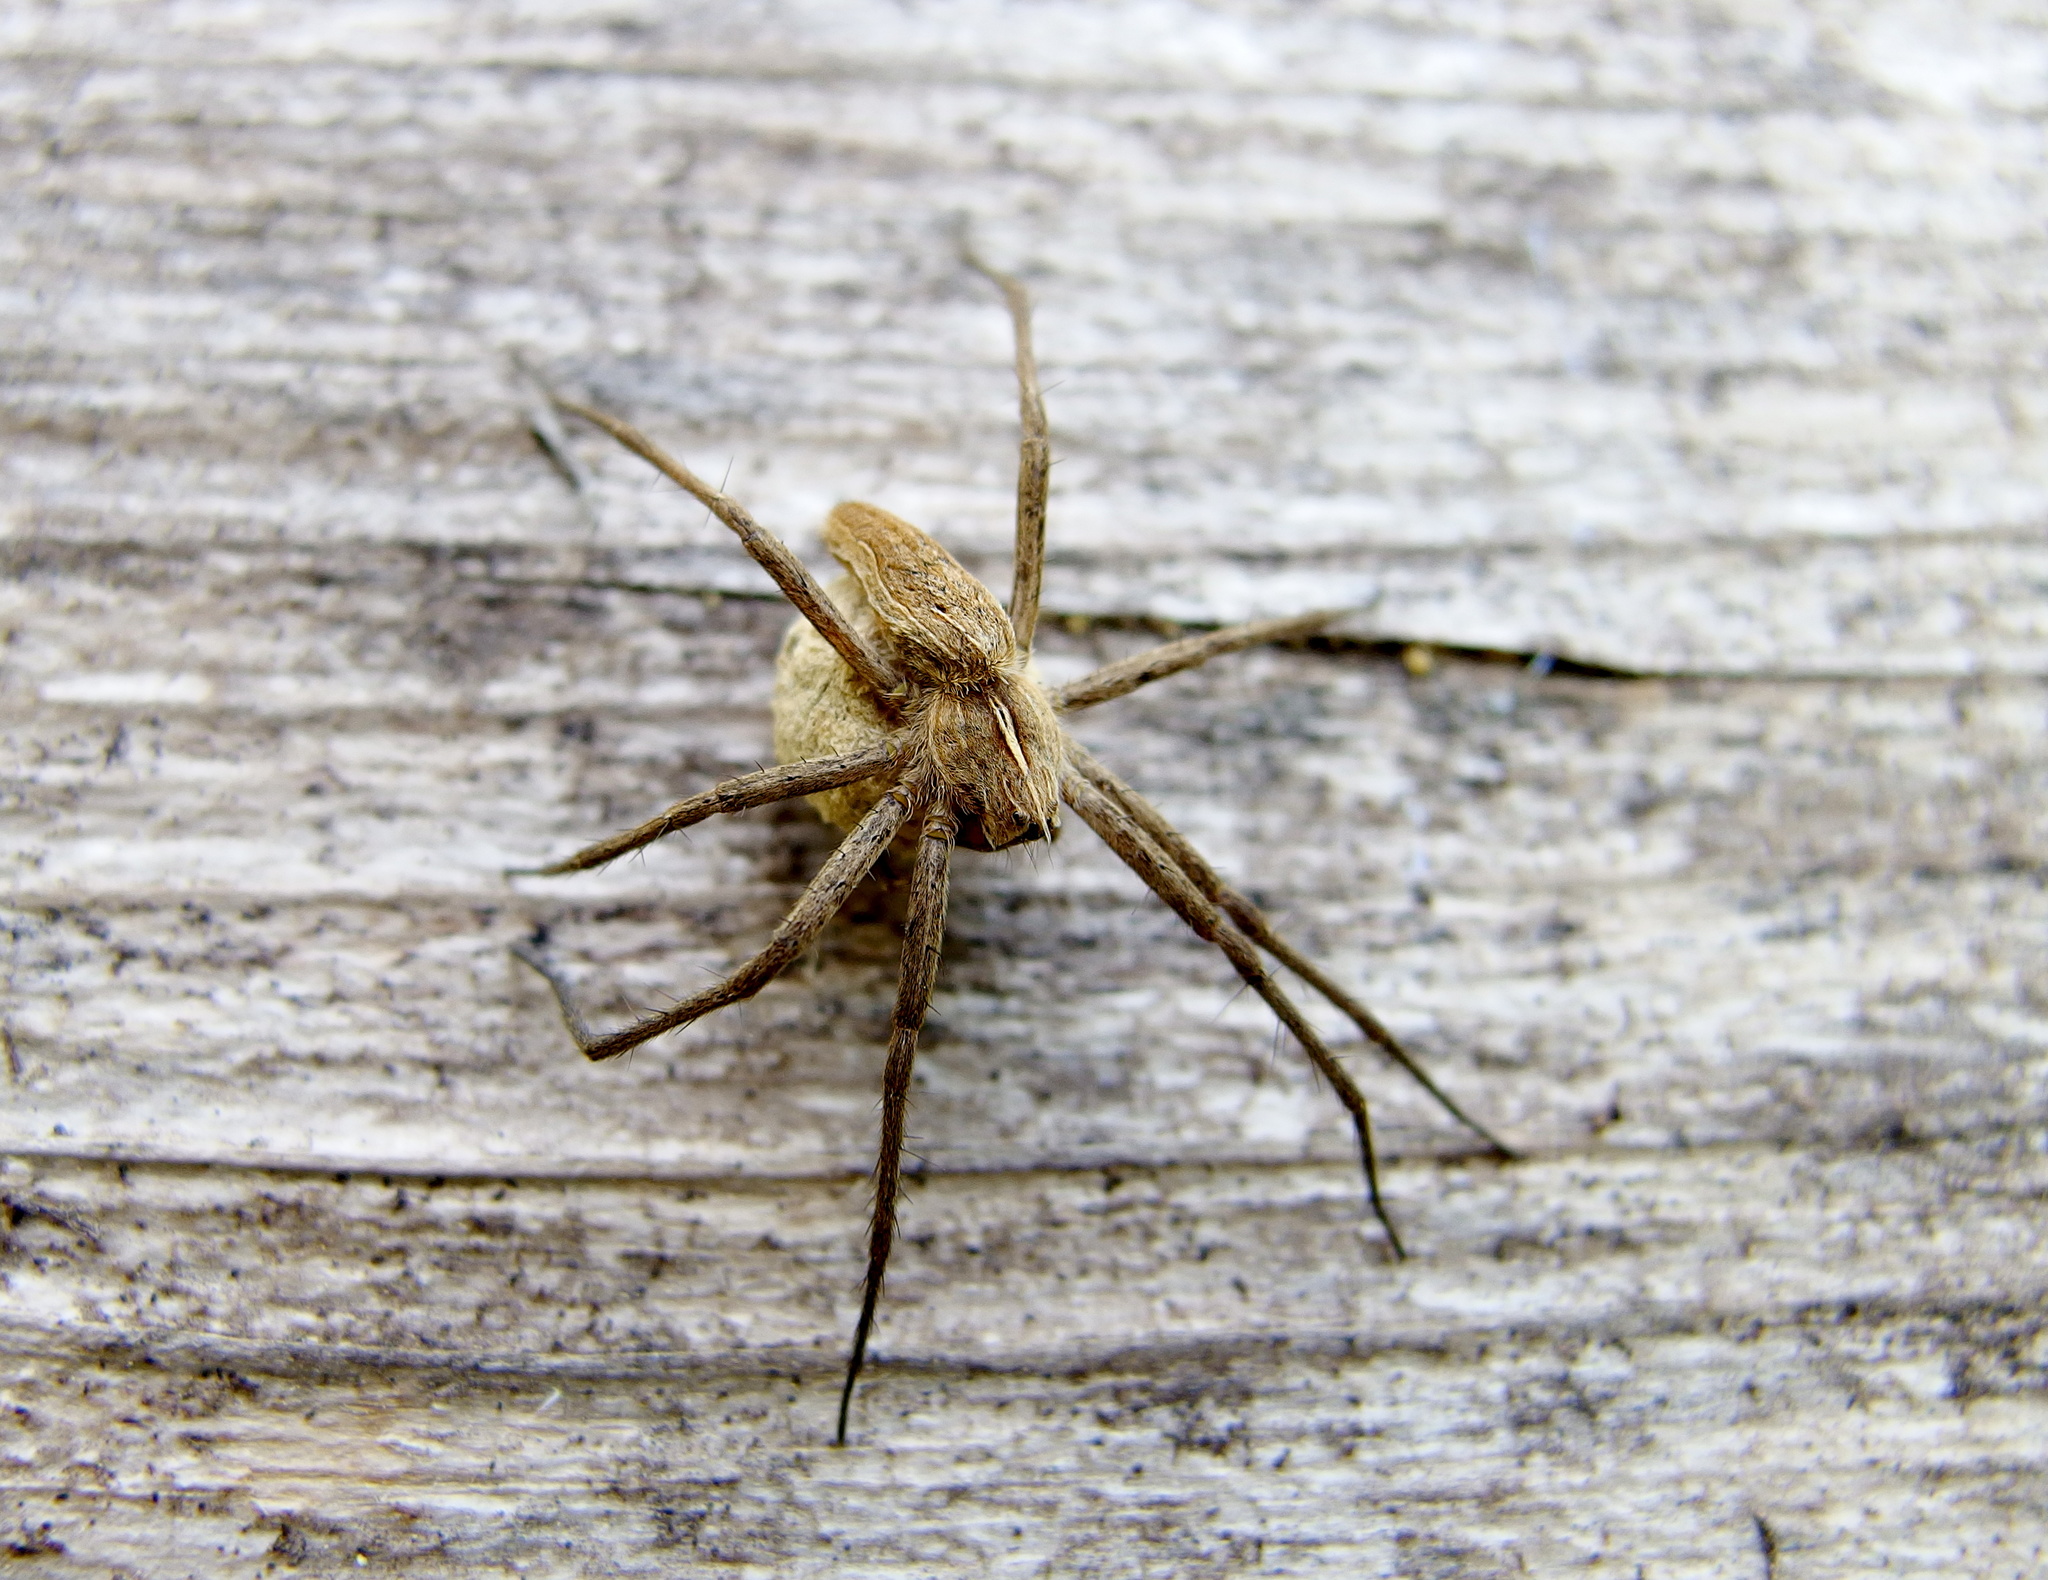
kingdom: Animalia
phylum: Arthropoda
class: Arachnida
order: Araneae
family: Pisauridae
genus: Pisaura
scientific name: Pisaura mirabilis
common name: Tent spider
